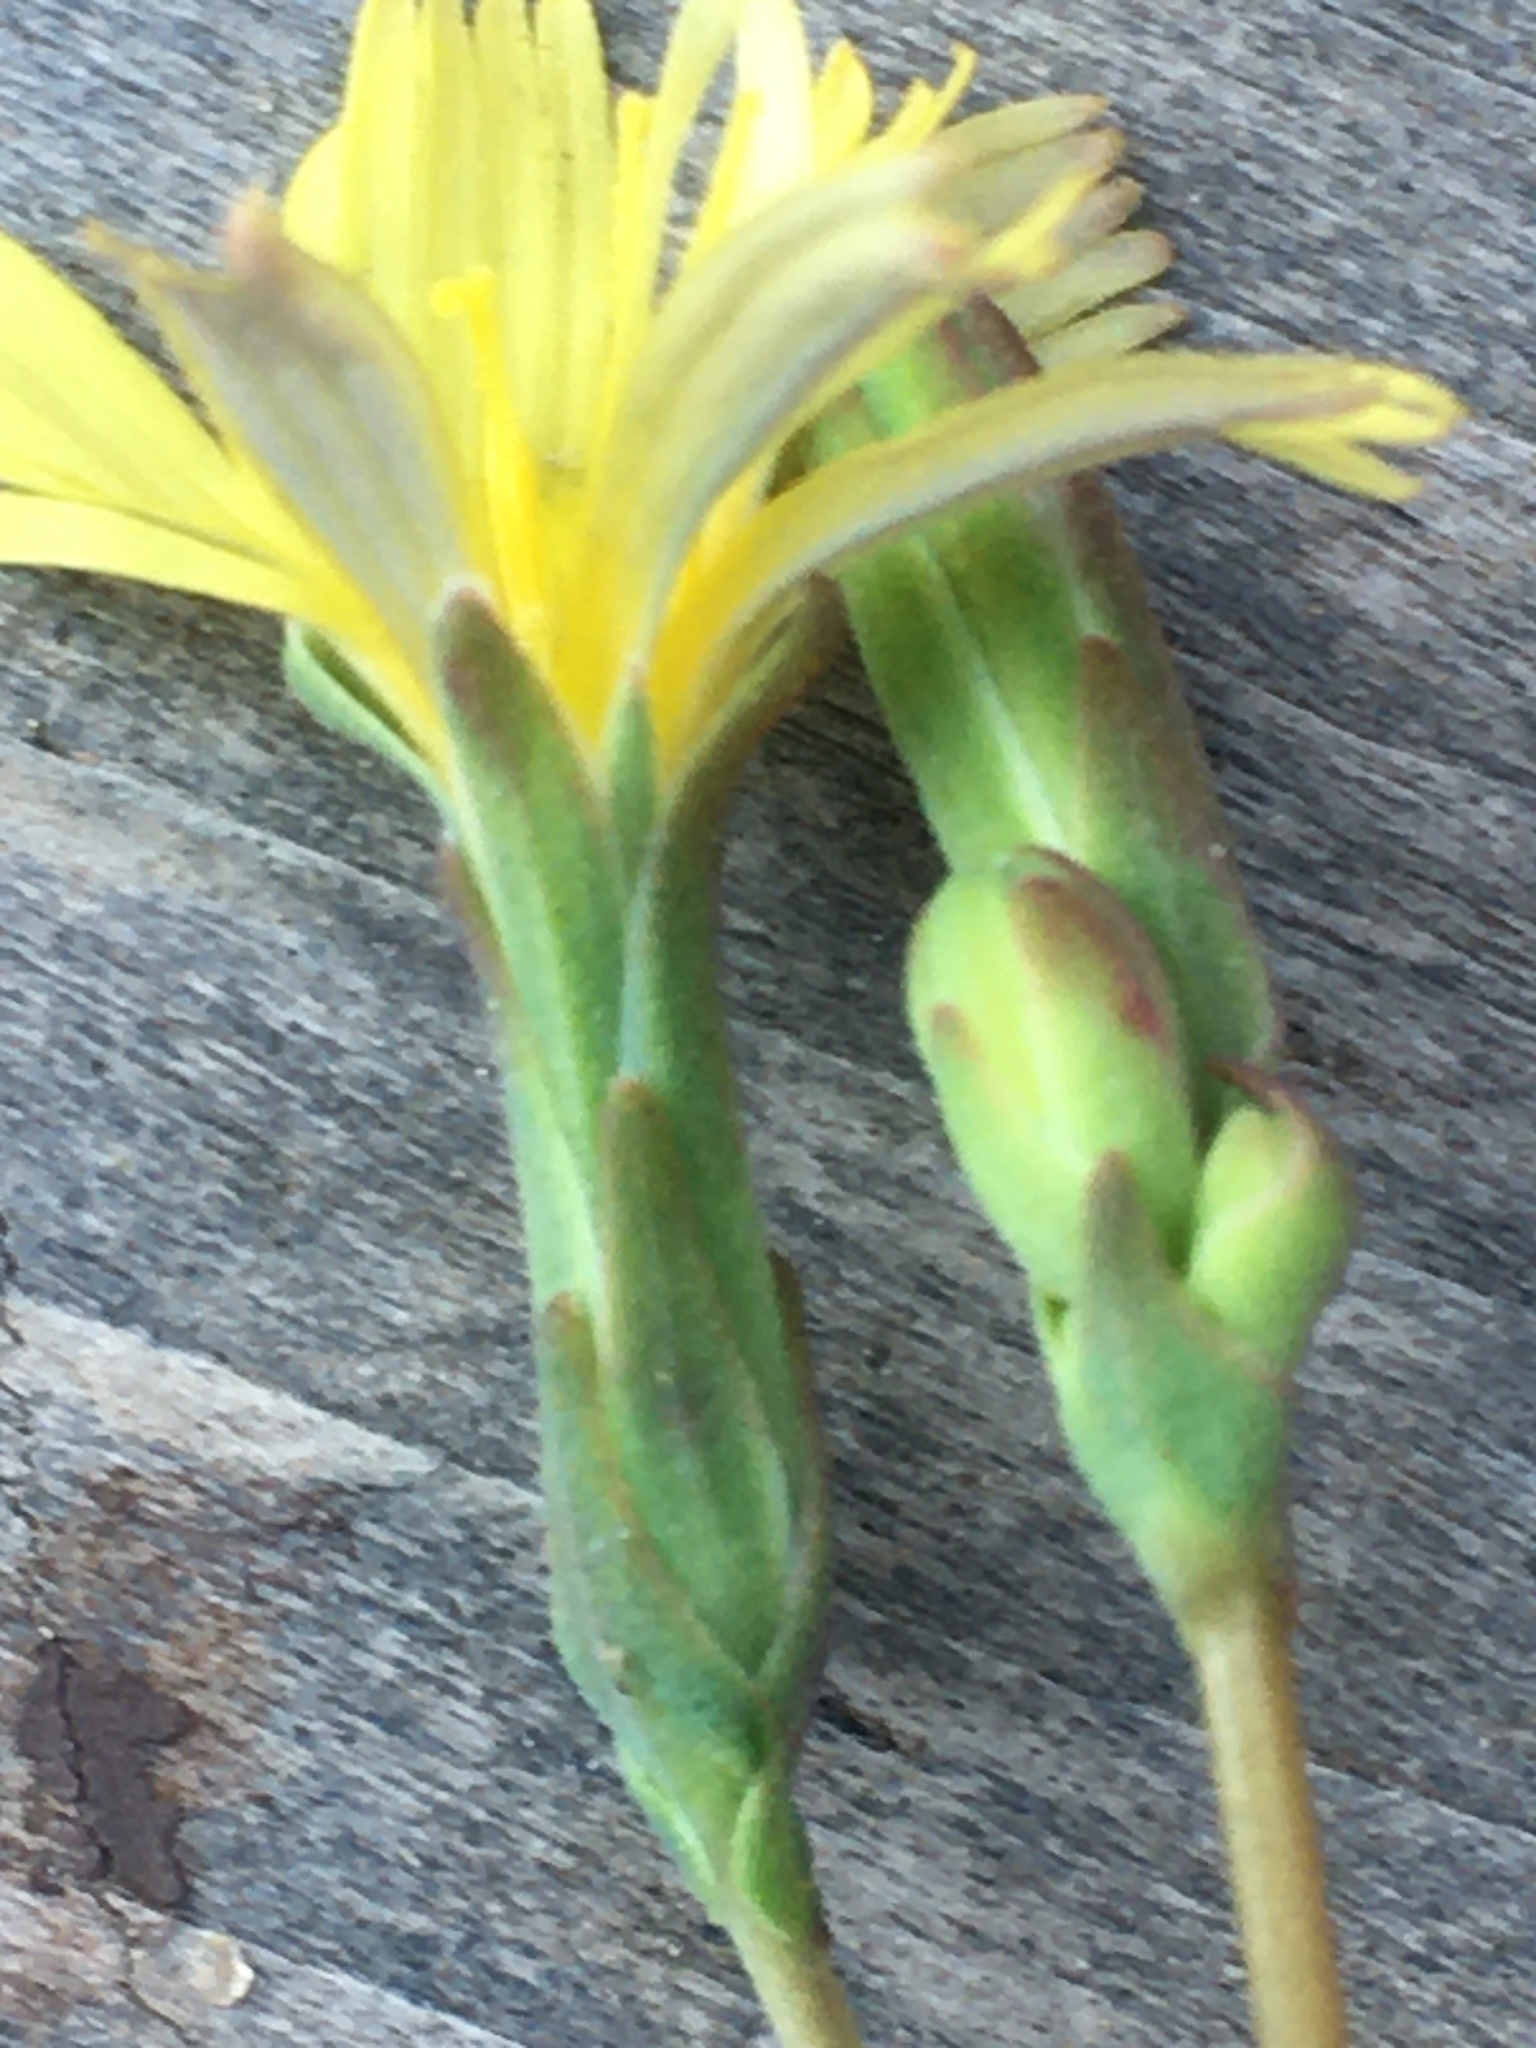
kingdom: Plantae
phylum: Tracheophyta
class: Magnoliopsida
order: Asterales
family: Asteraceae
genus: Lactuca
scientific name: Lactuca serriola
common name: Prickly lettuce
